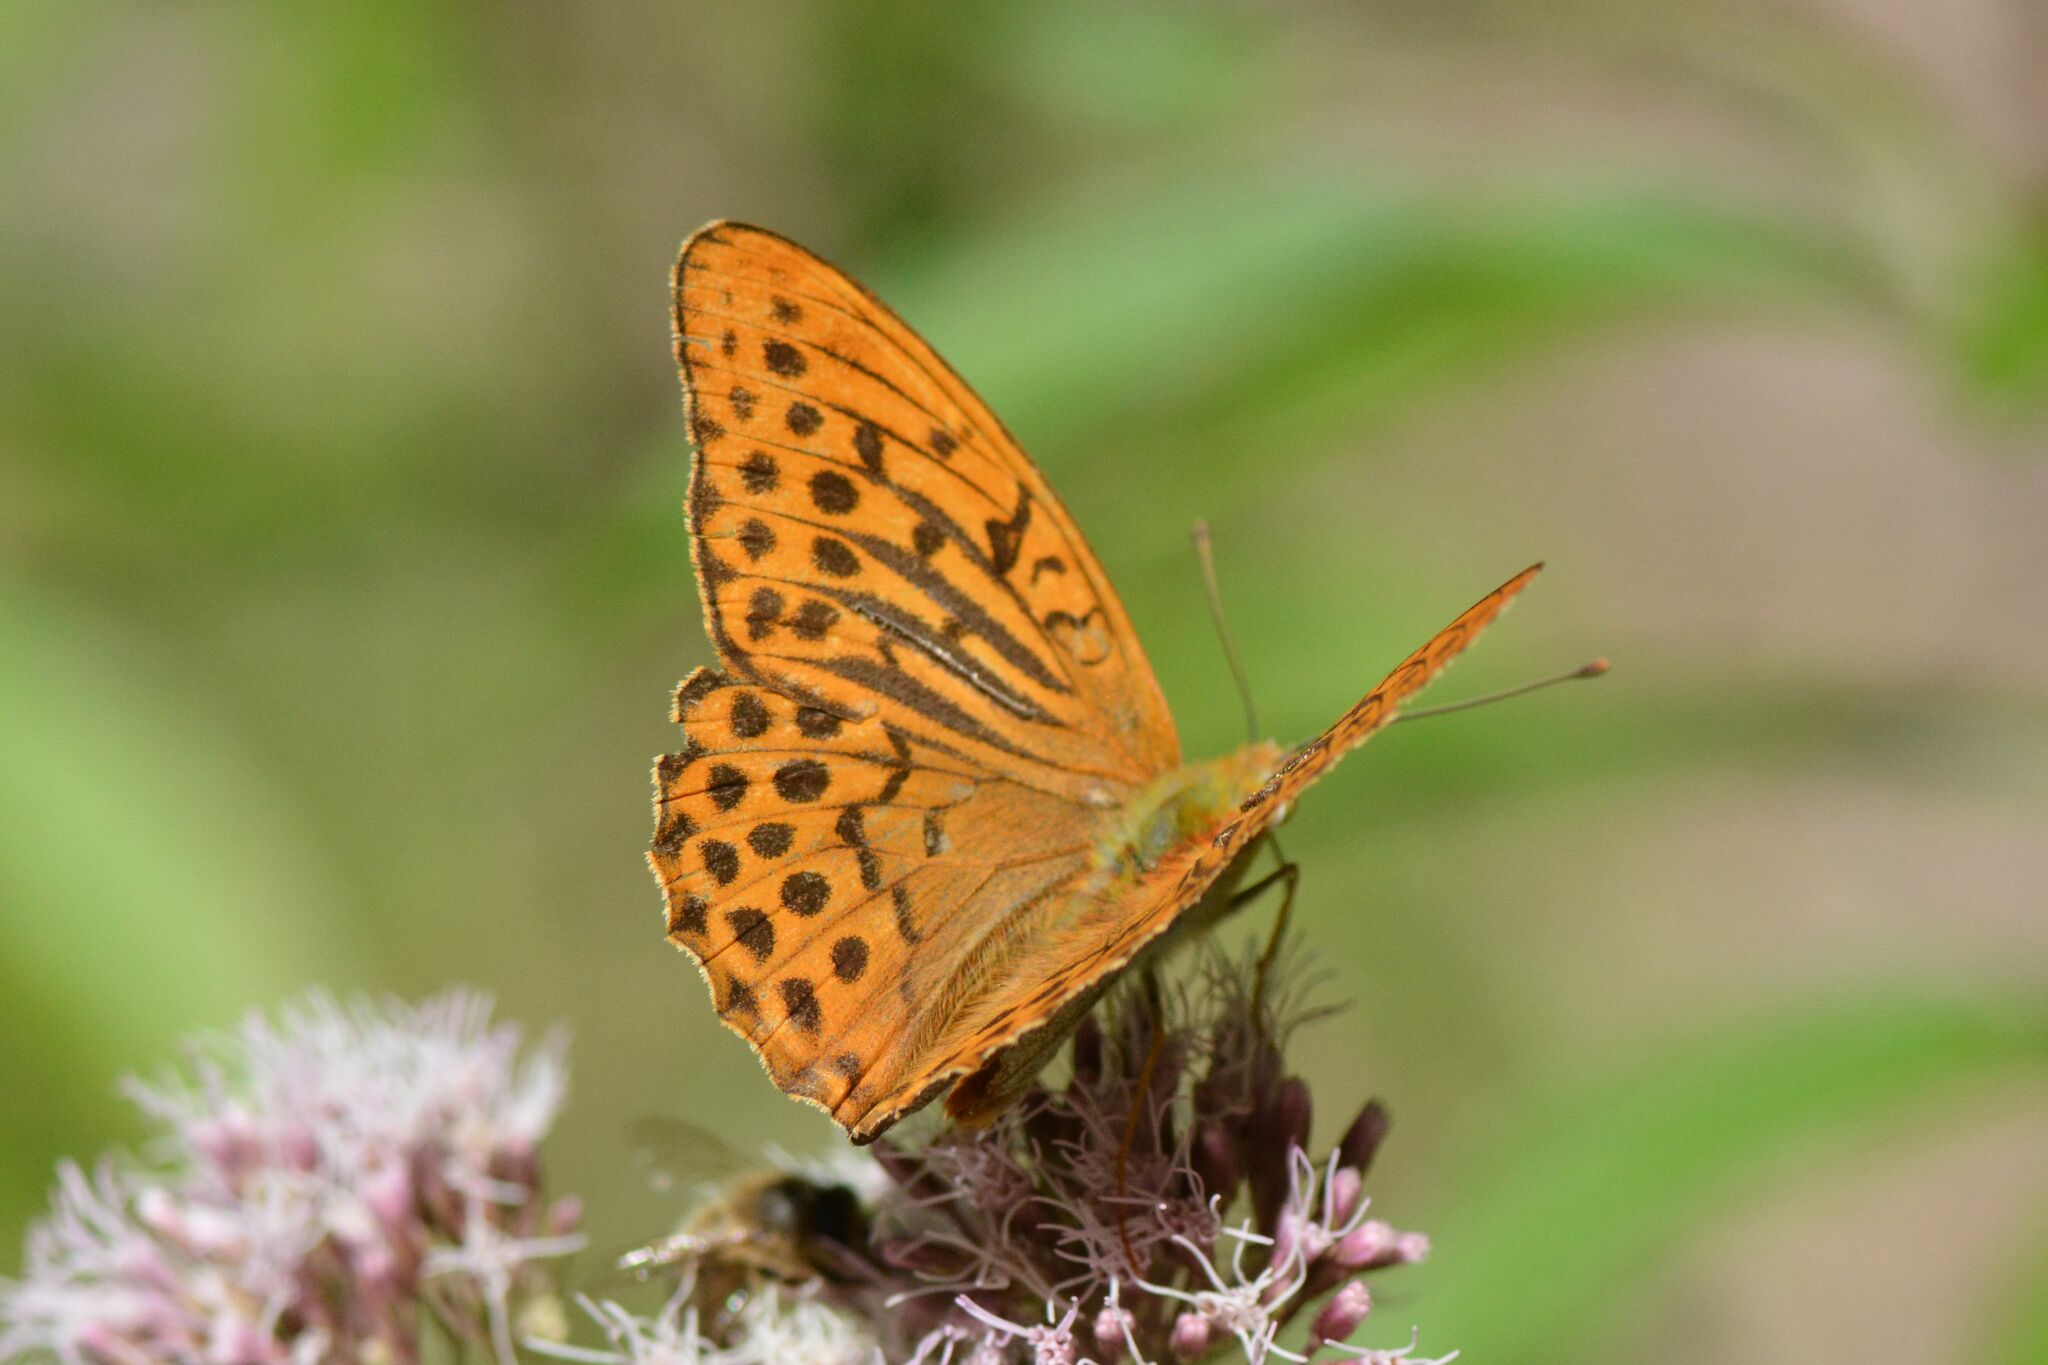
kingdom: Animalia
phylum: Arthropoda
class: Insecta
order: Lepidoptera
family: Nymphalidae
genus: Argynnis
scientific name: Argynnis paphia
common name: Silver-washed fritillary
